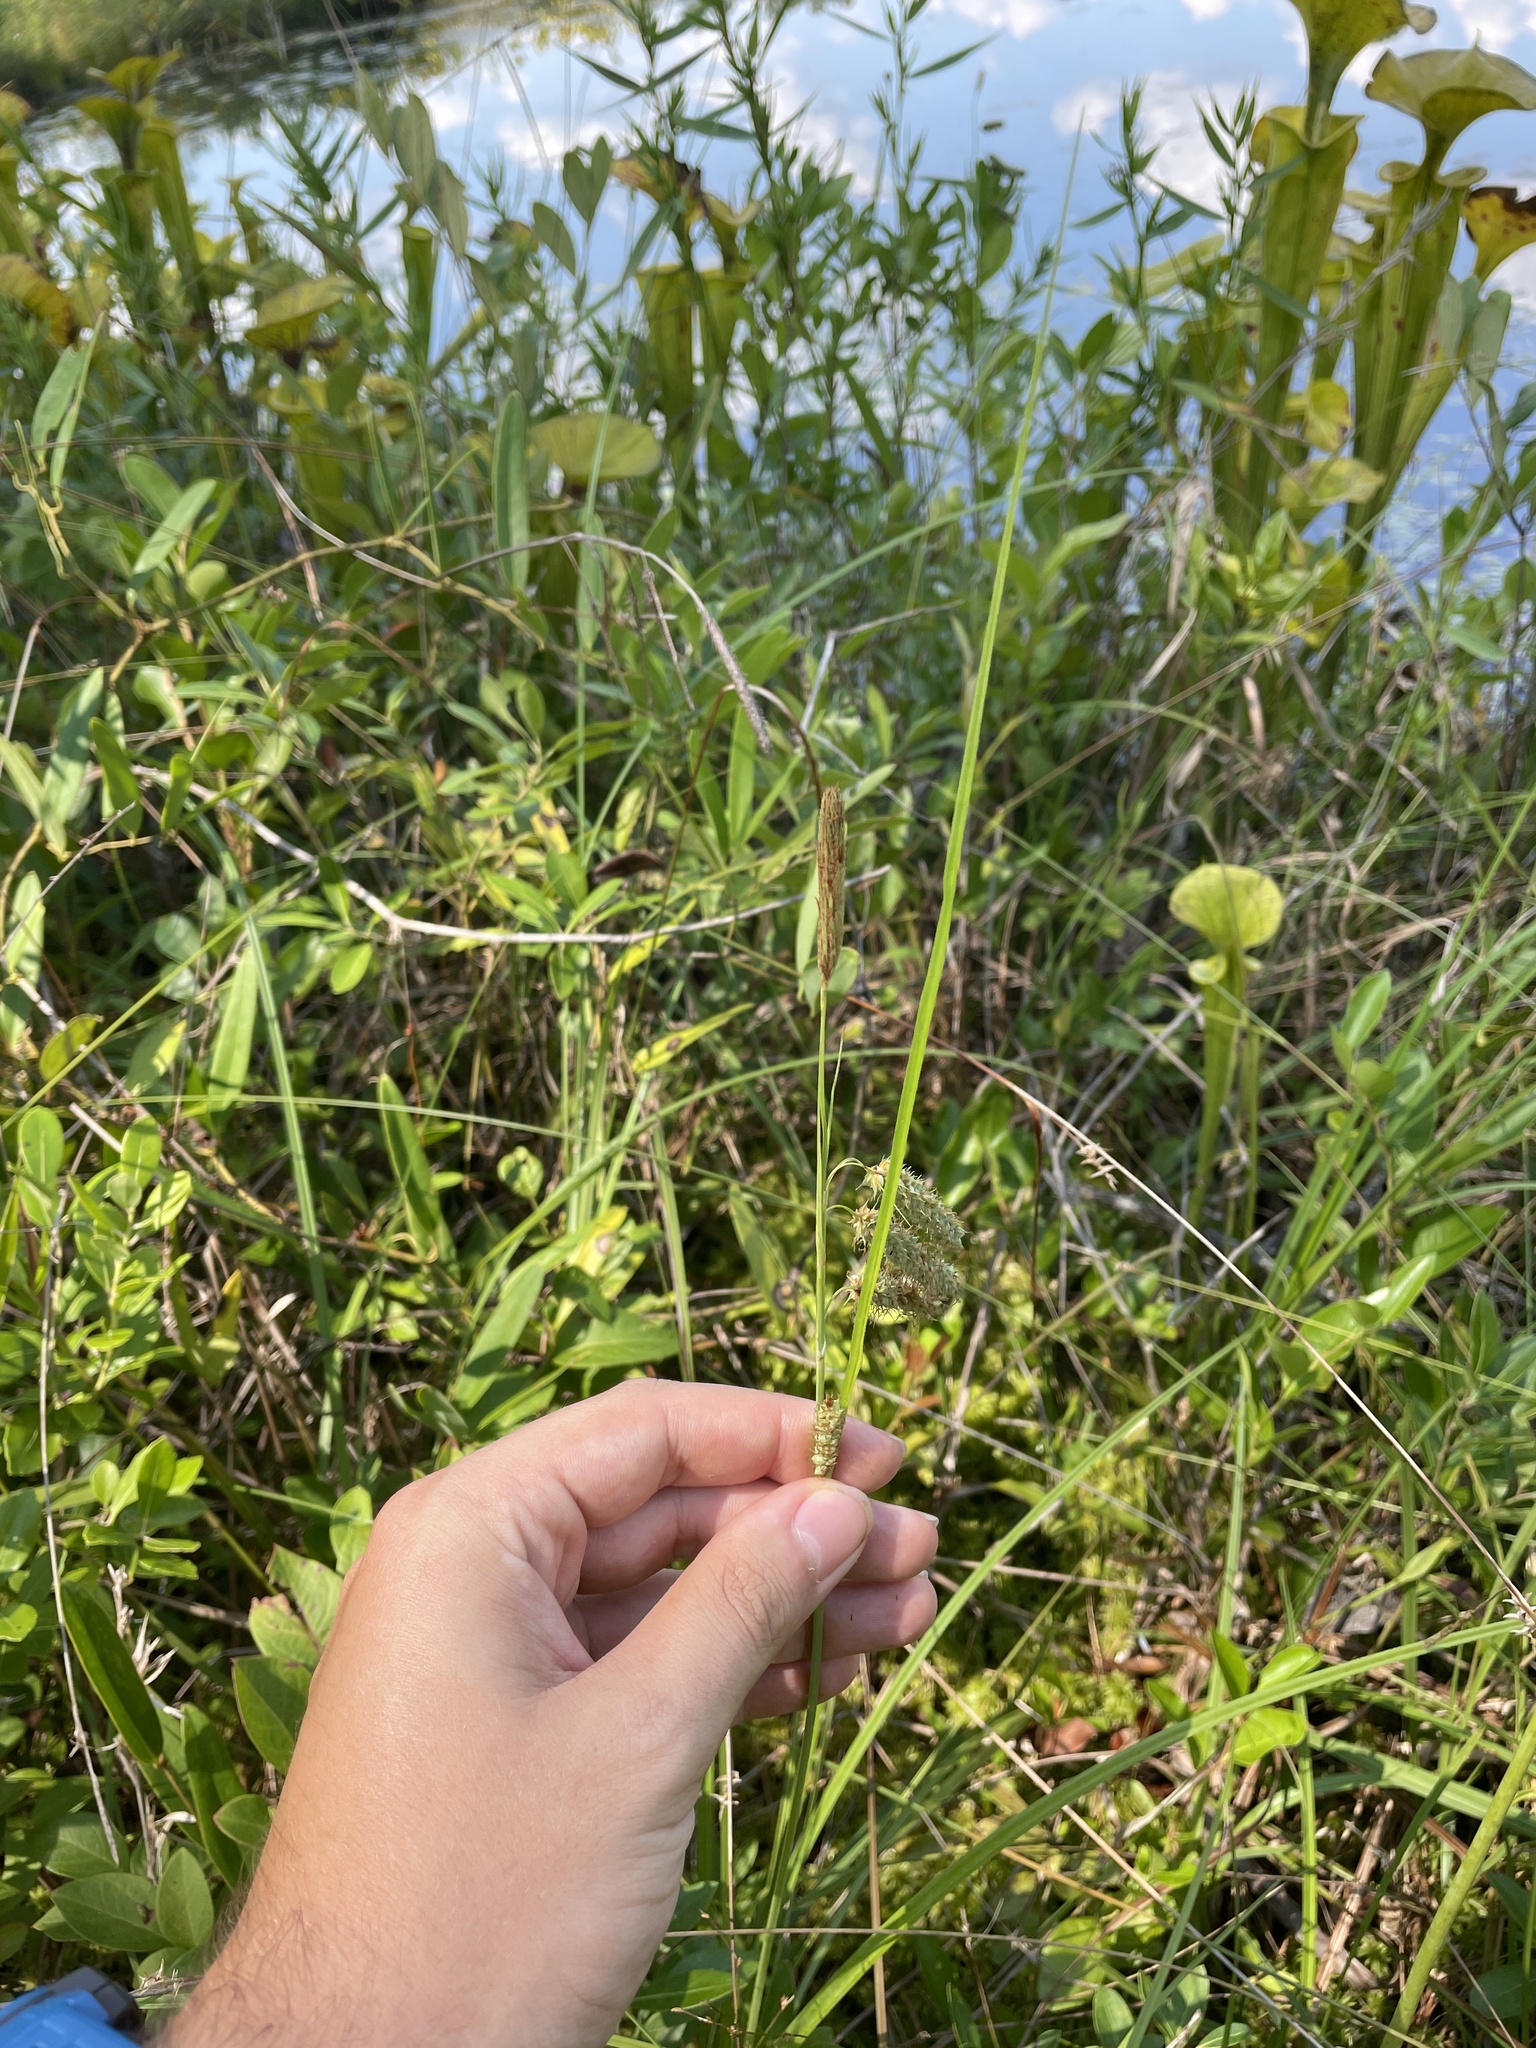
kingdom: Plantae
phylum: Tracheophyta
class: Liliopsida
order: Poales
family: Cyperaceae
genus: Carex
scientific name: Carex glaucescens
